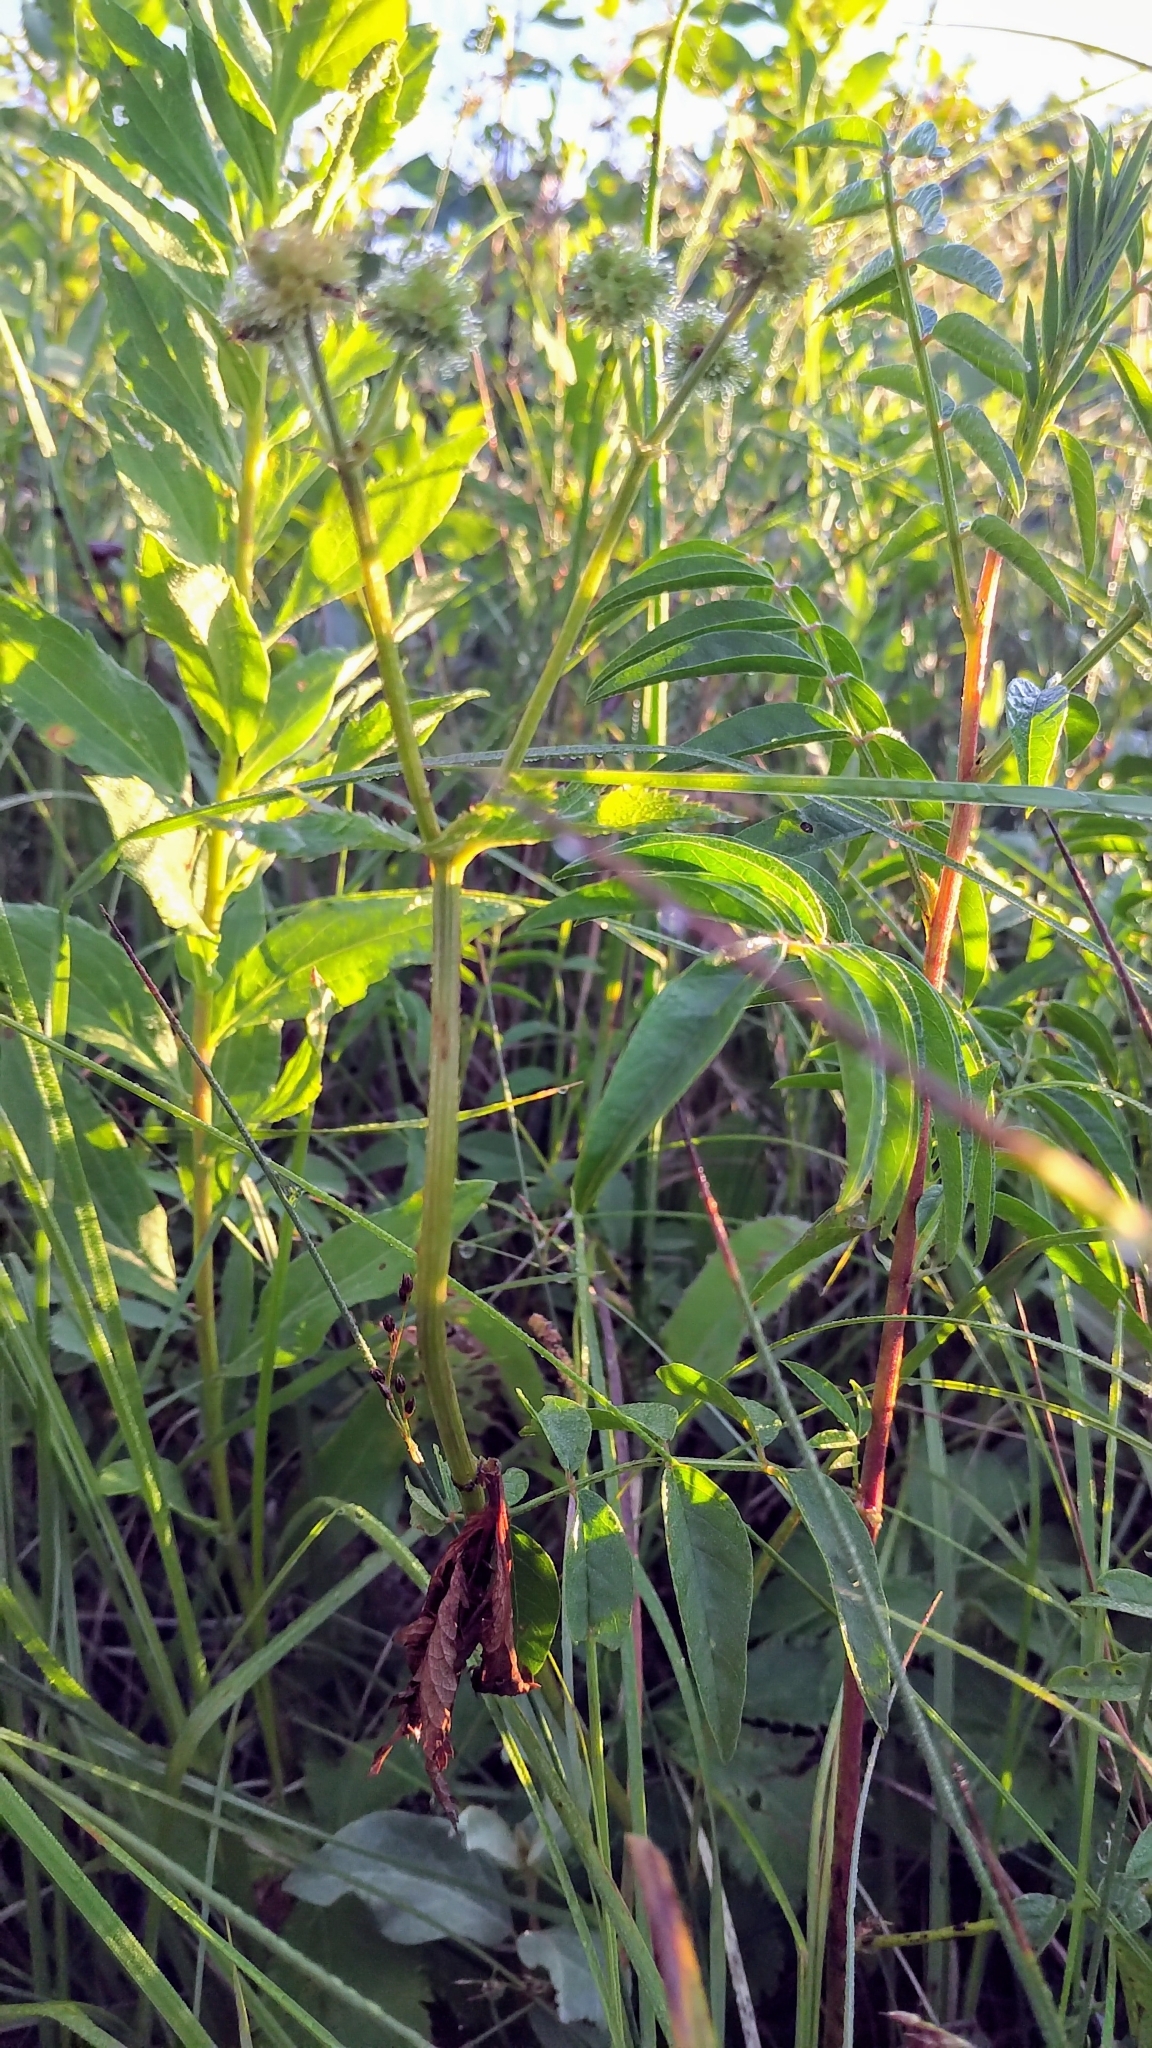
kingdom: Plantae
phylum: Tracheophyta
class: Magnoliopsida
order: Fabales
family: Fabaceae
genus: Glycyrrhiza
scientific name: Glycyrrhiza lepidota
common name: American liquorice
